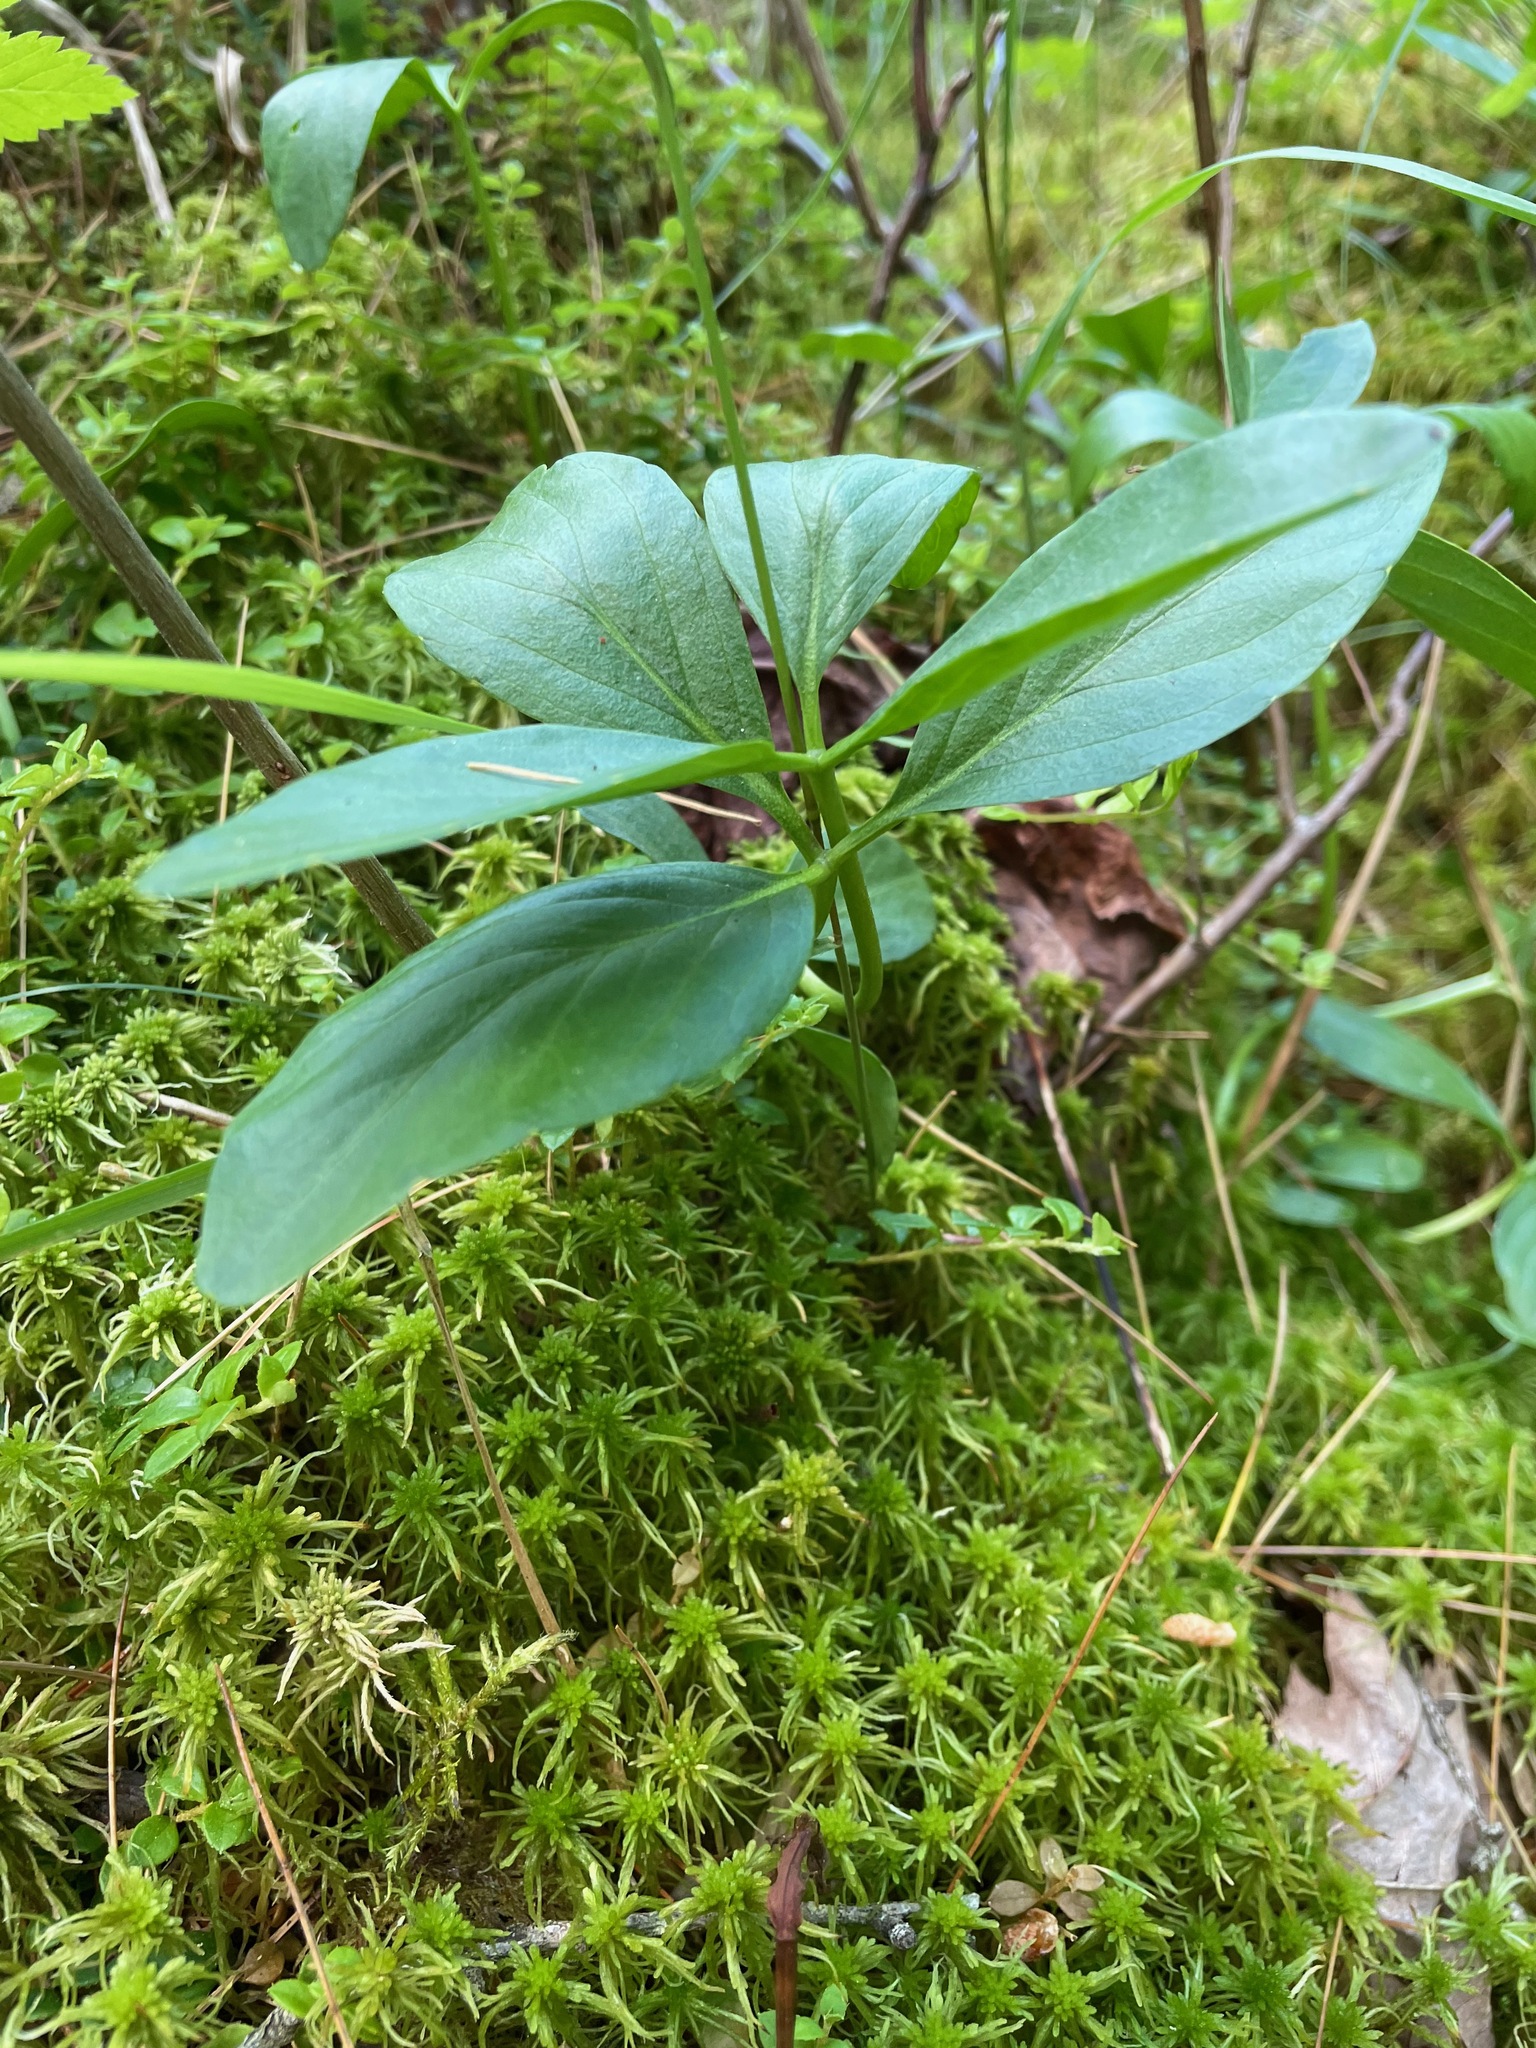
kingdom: Plantae
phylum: Tracheophyta
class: Magnoliopsida
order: Asterales
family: Menyanthaceae
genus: Menyanthes
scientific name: Menyanthes trifoliata
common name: Bogbean
